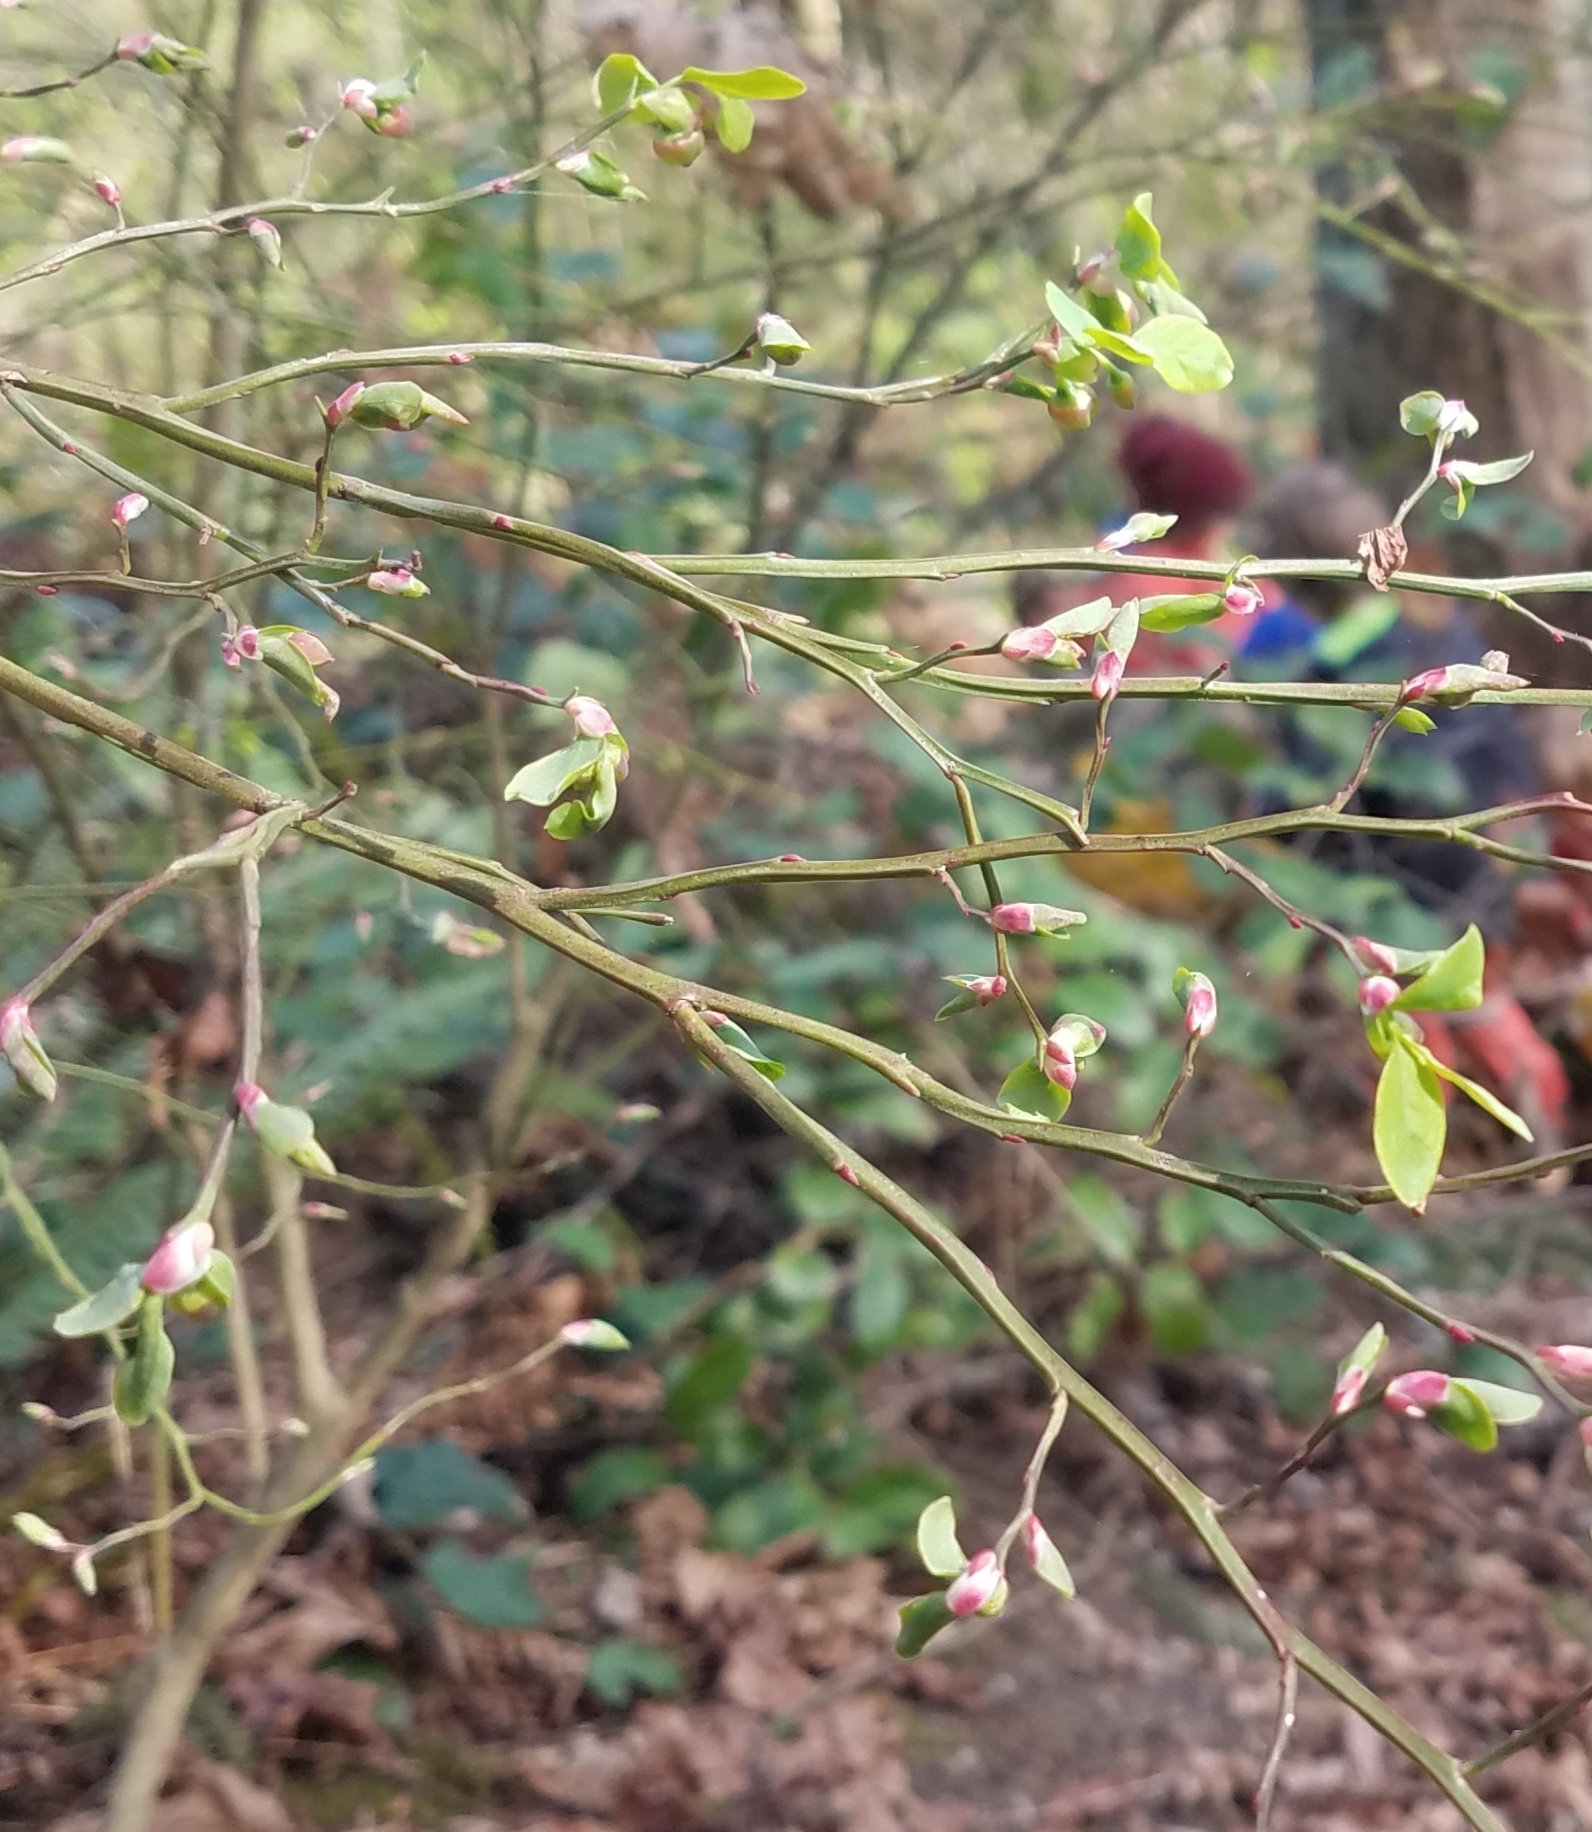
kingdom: Plantae
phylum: Tracheophyta
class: Magnoliopsida
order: Ericales
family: Ericaceae
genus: Vaccinium
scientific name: Vaccinium parvifolium
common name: Red-huckleberry
